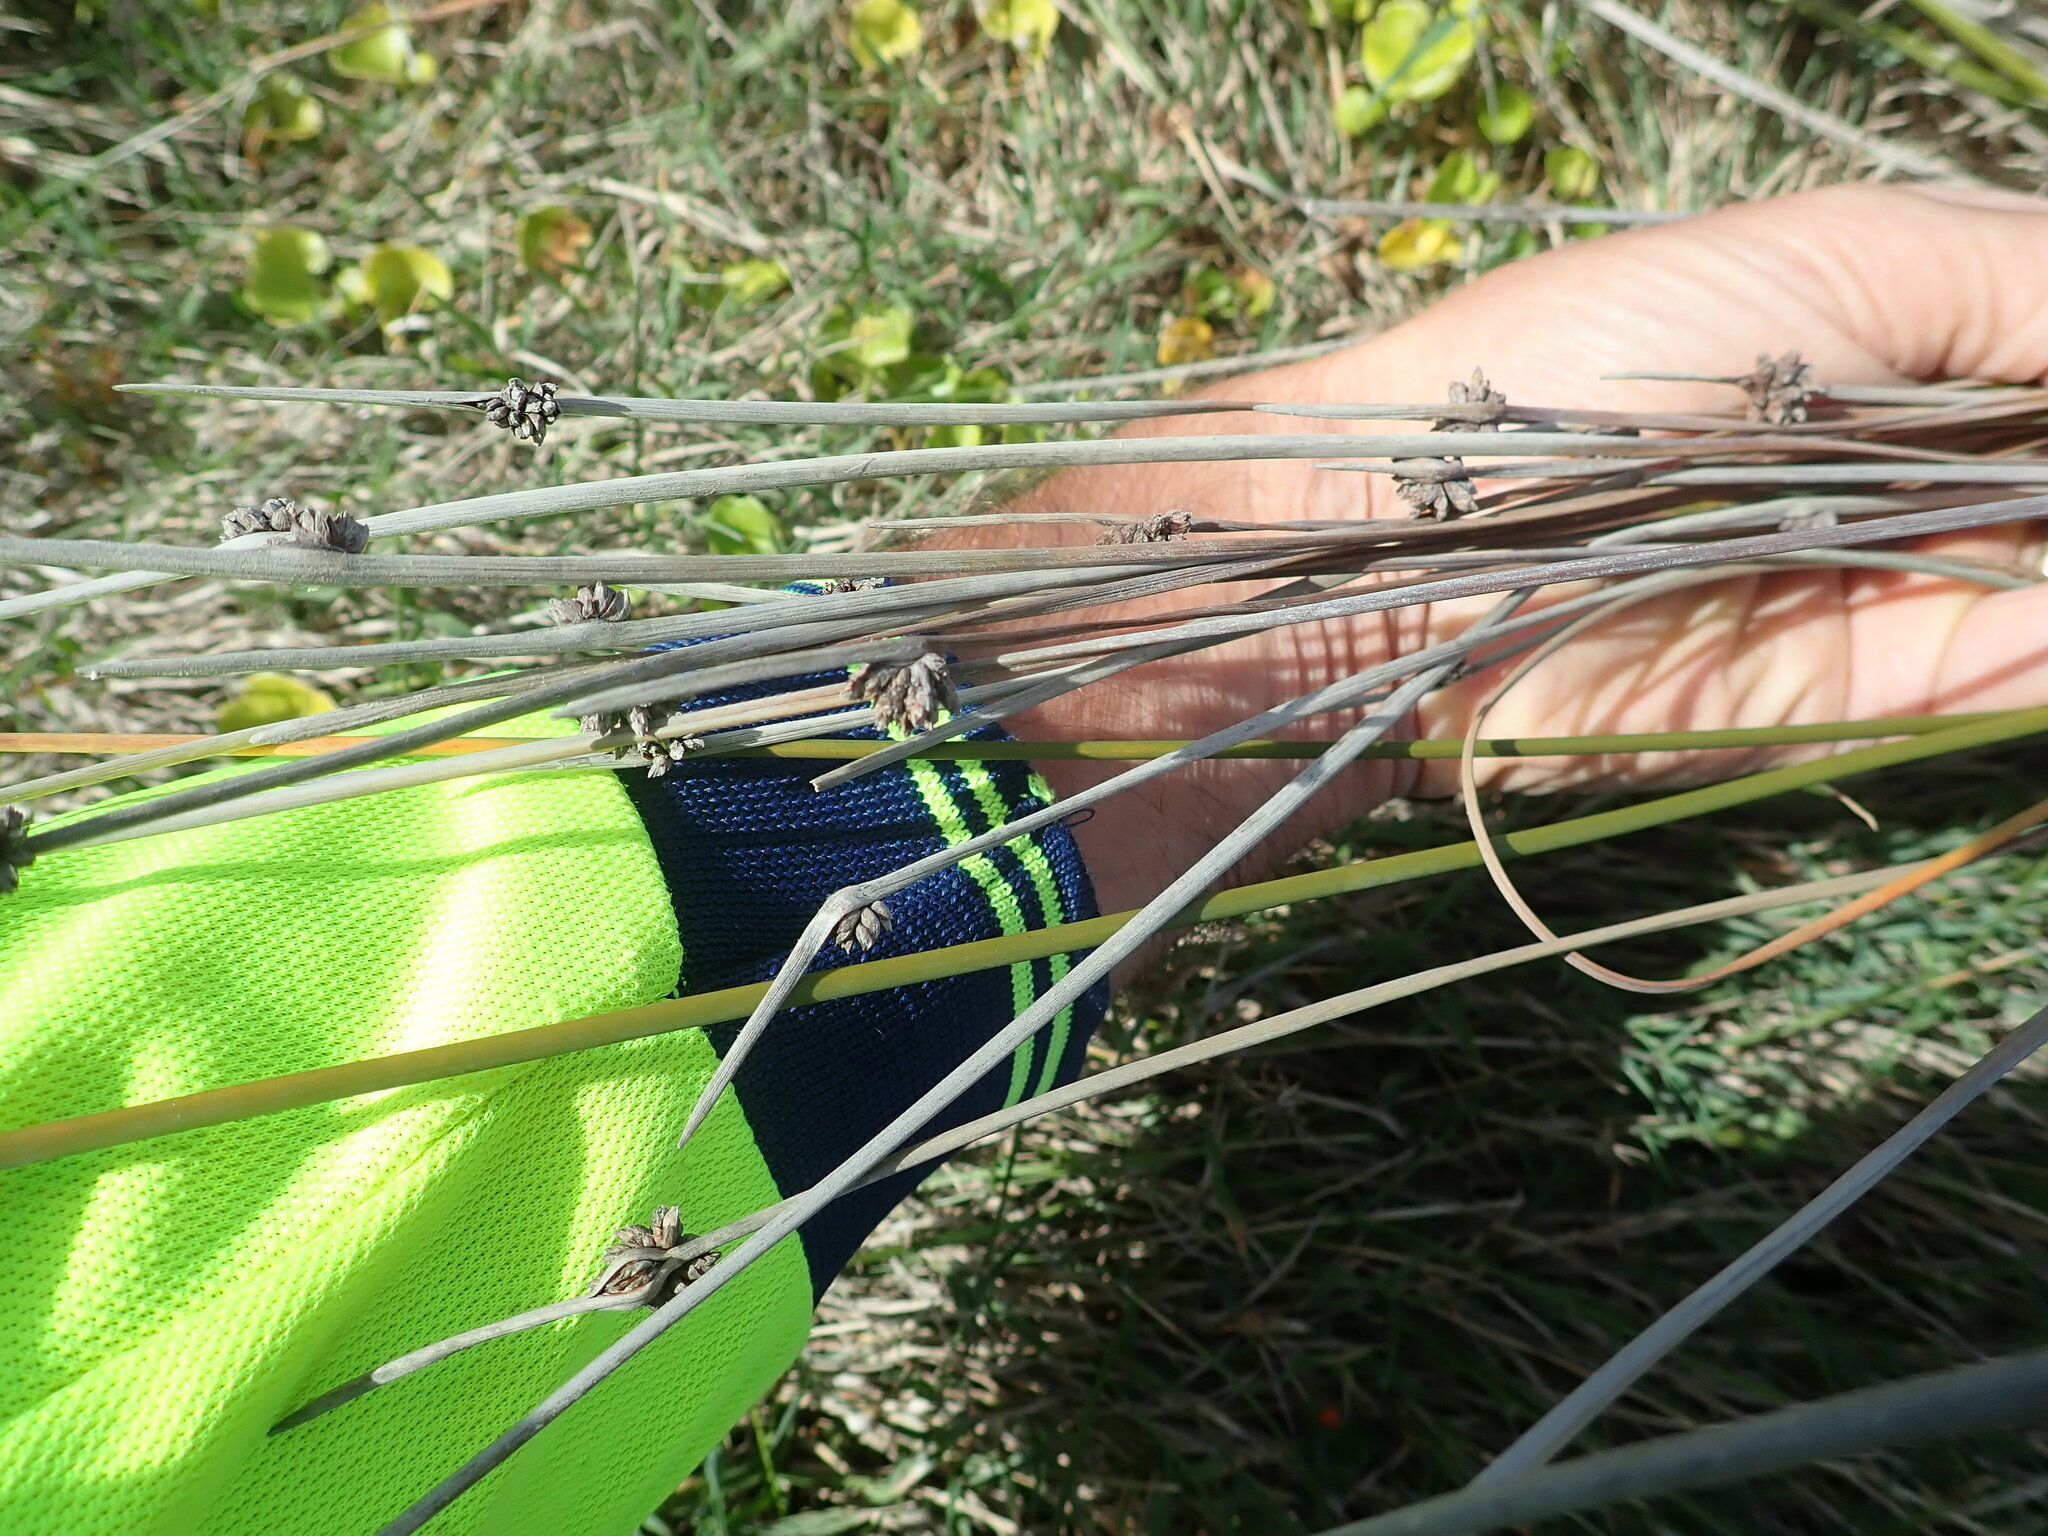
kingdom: Plantae
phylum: Tracheophyta
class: Liliopsida
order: Poales
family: Cyperaceae
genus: Ficinia
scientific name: Ficinia nodosa
